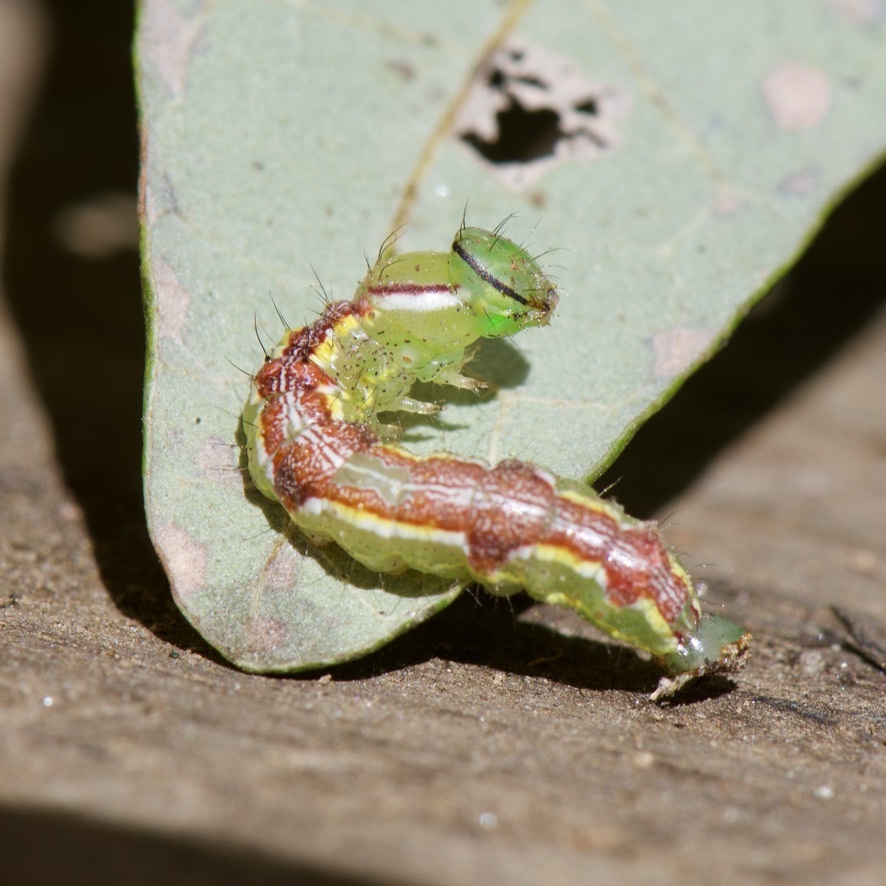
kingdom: Animalia
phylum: Arthropoda
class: Insecta
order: Lepidoptera
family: Notodontidae
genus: Lochmaeus
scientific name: Lochmaeus manteo
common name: Variable oakleaf caterpillar moth
